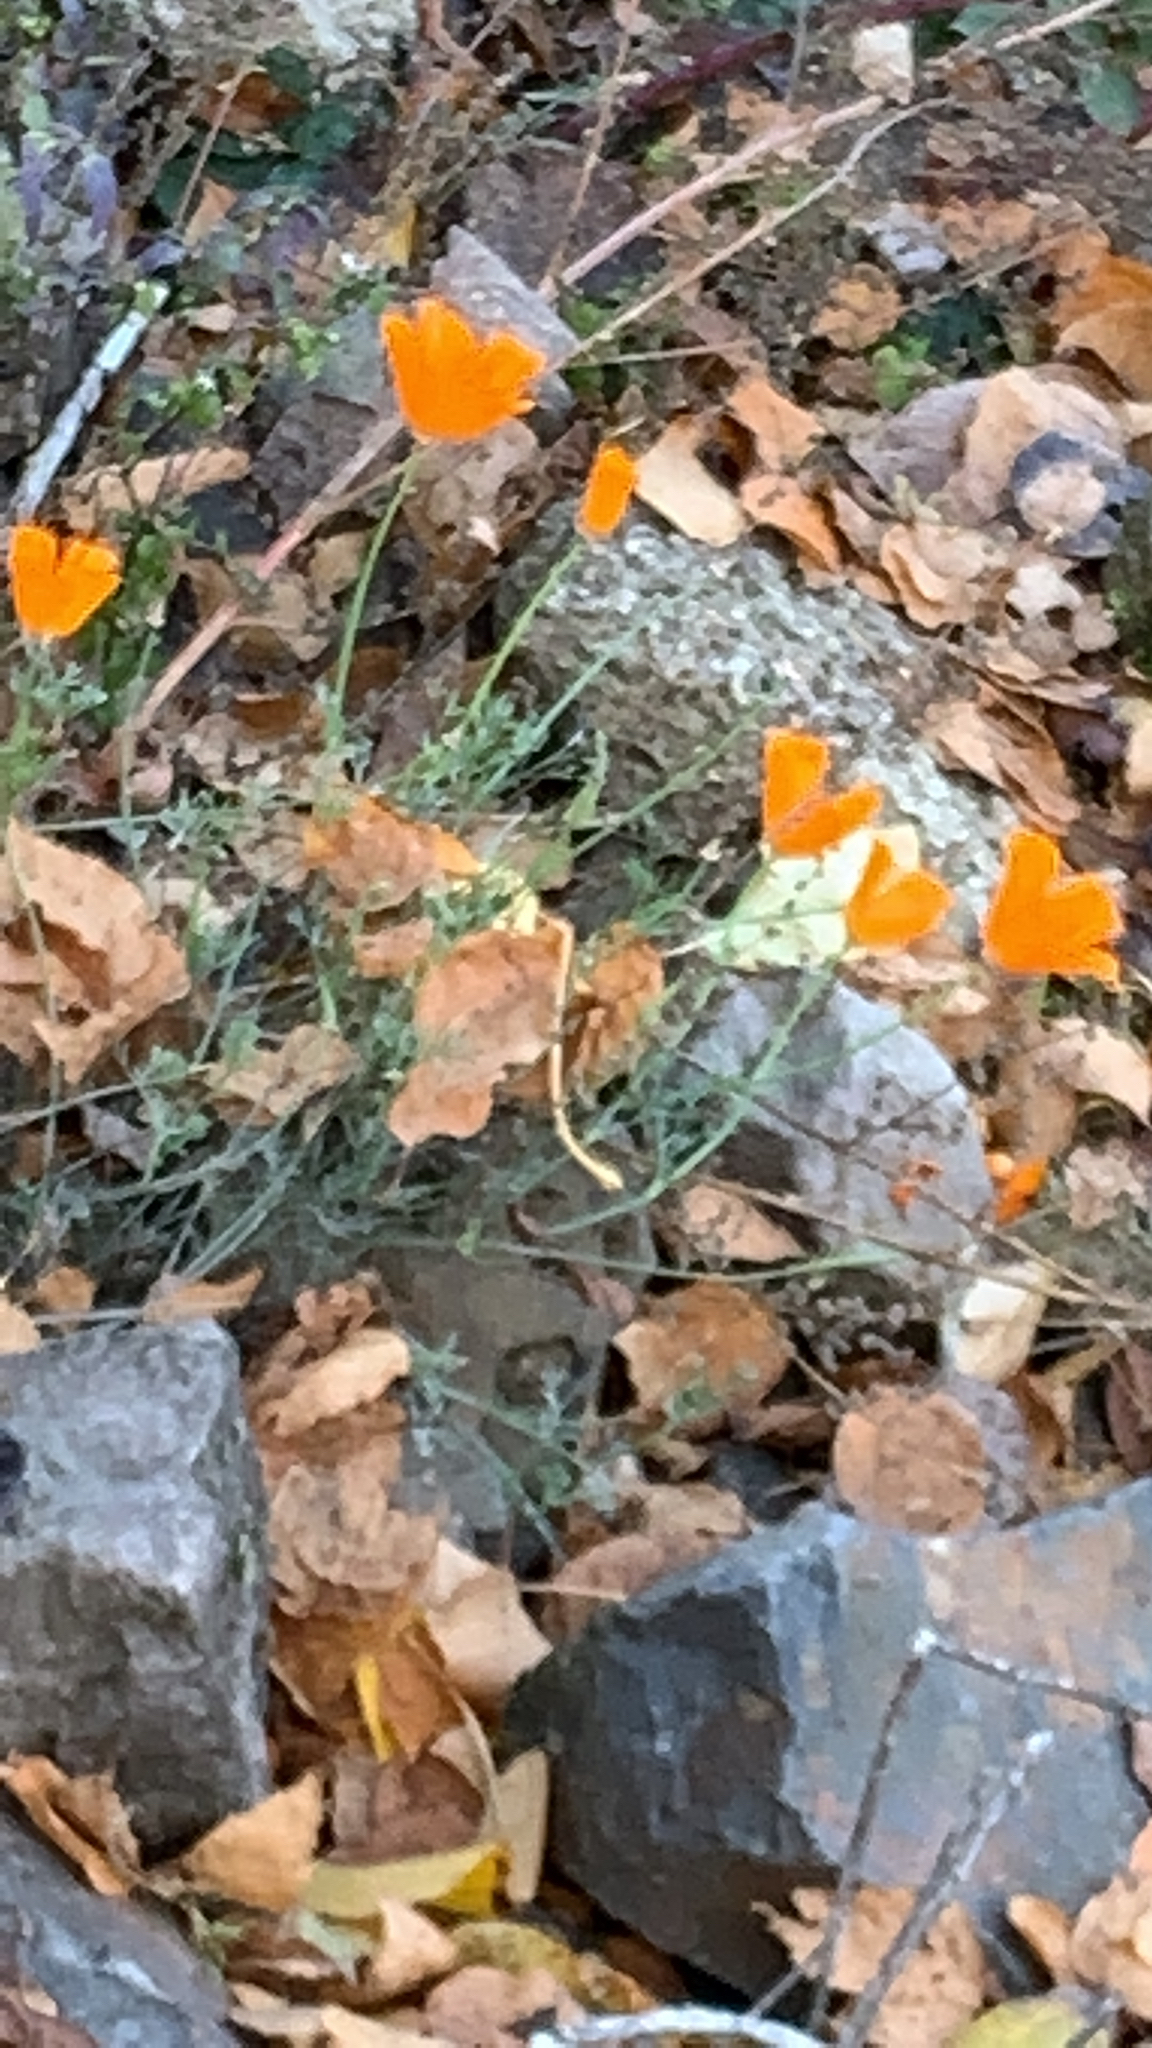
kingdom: Plantae
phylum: Tracheophyta
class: Magnoliopsida
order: Ranunculales
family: Papaveraceae
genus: Eschscholzia
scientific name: Eschscholzia californica
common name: California poppy
